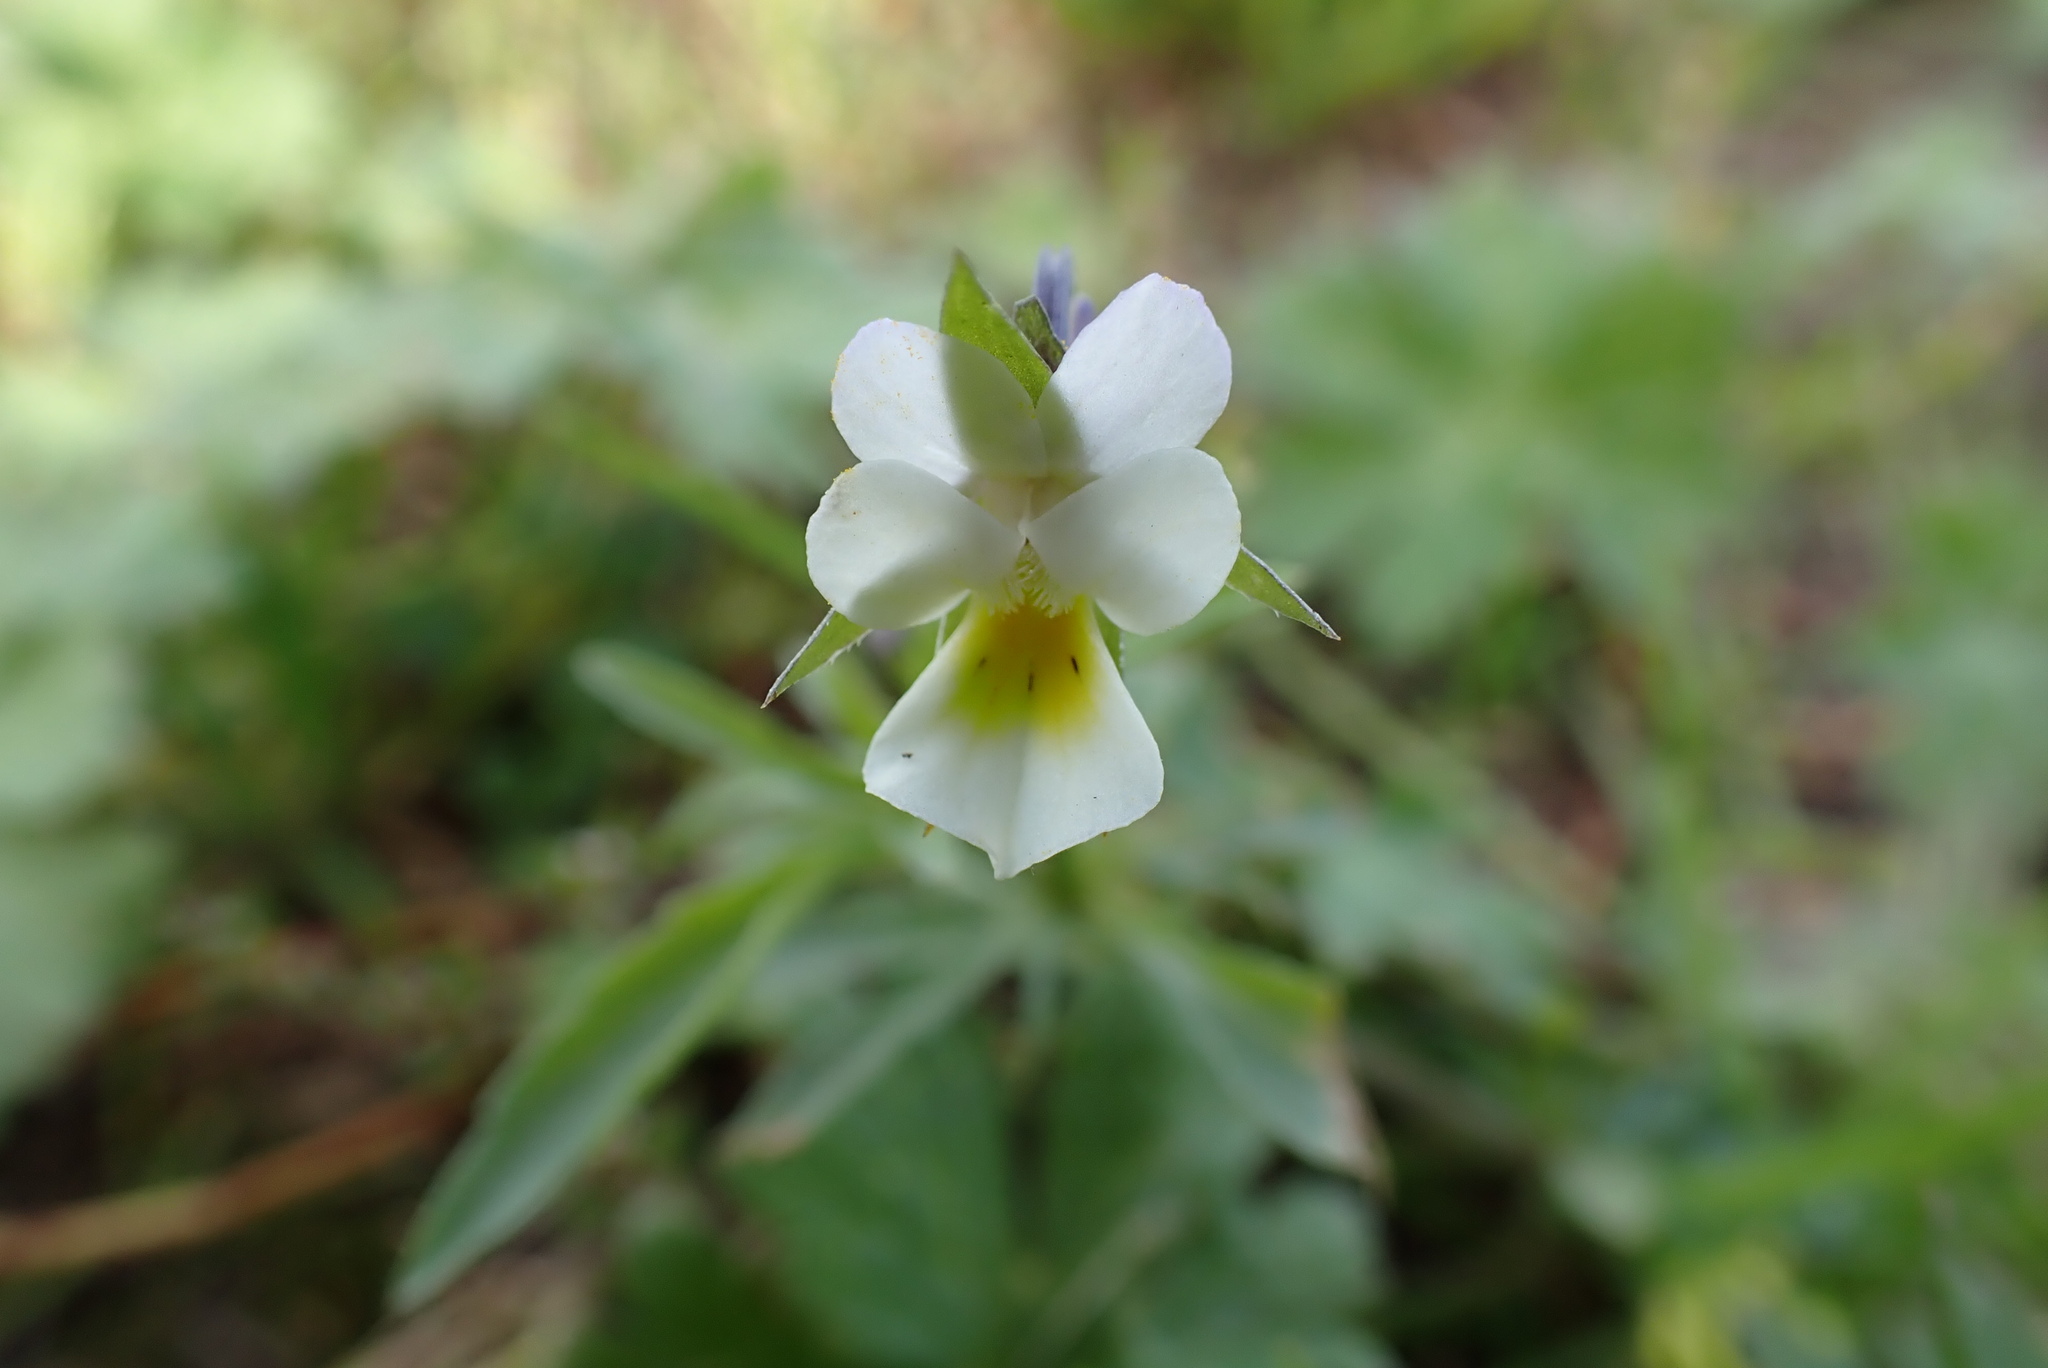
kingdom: Plantae
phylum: Tracheophyta
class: Magnoliopsida
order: Malpighiales
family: Violaceae
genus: Viola
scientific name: Viola arvensis
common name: Field pansy
